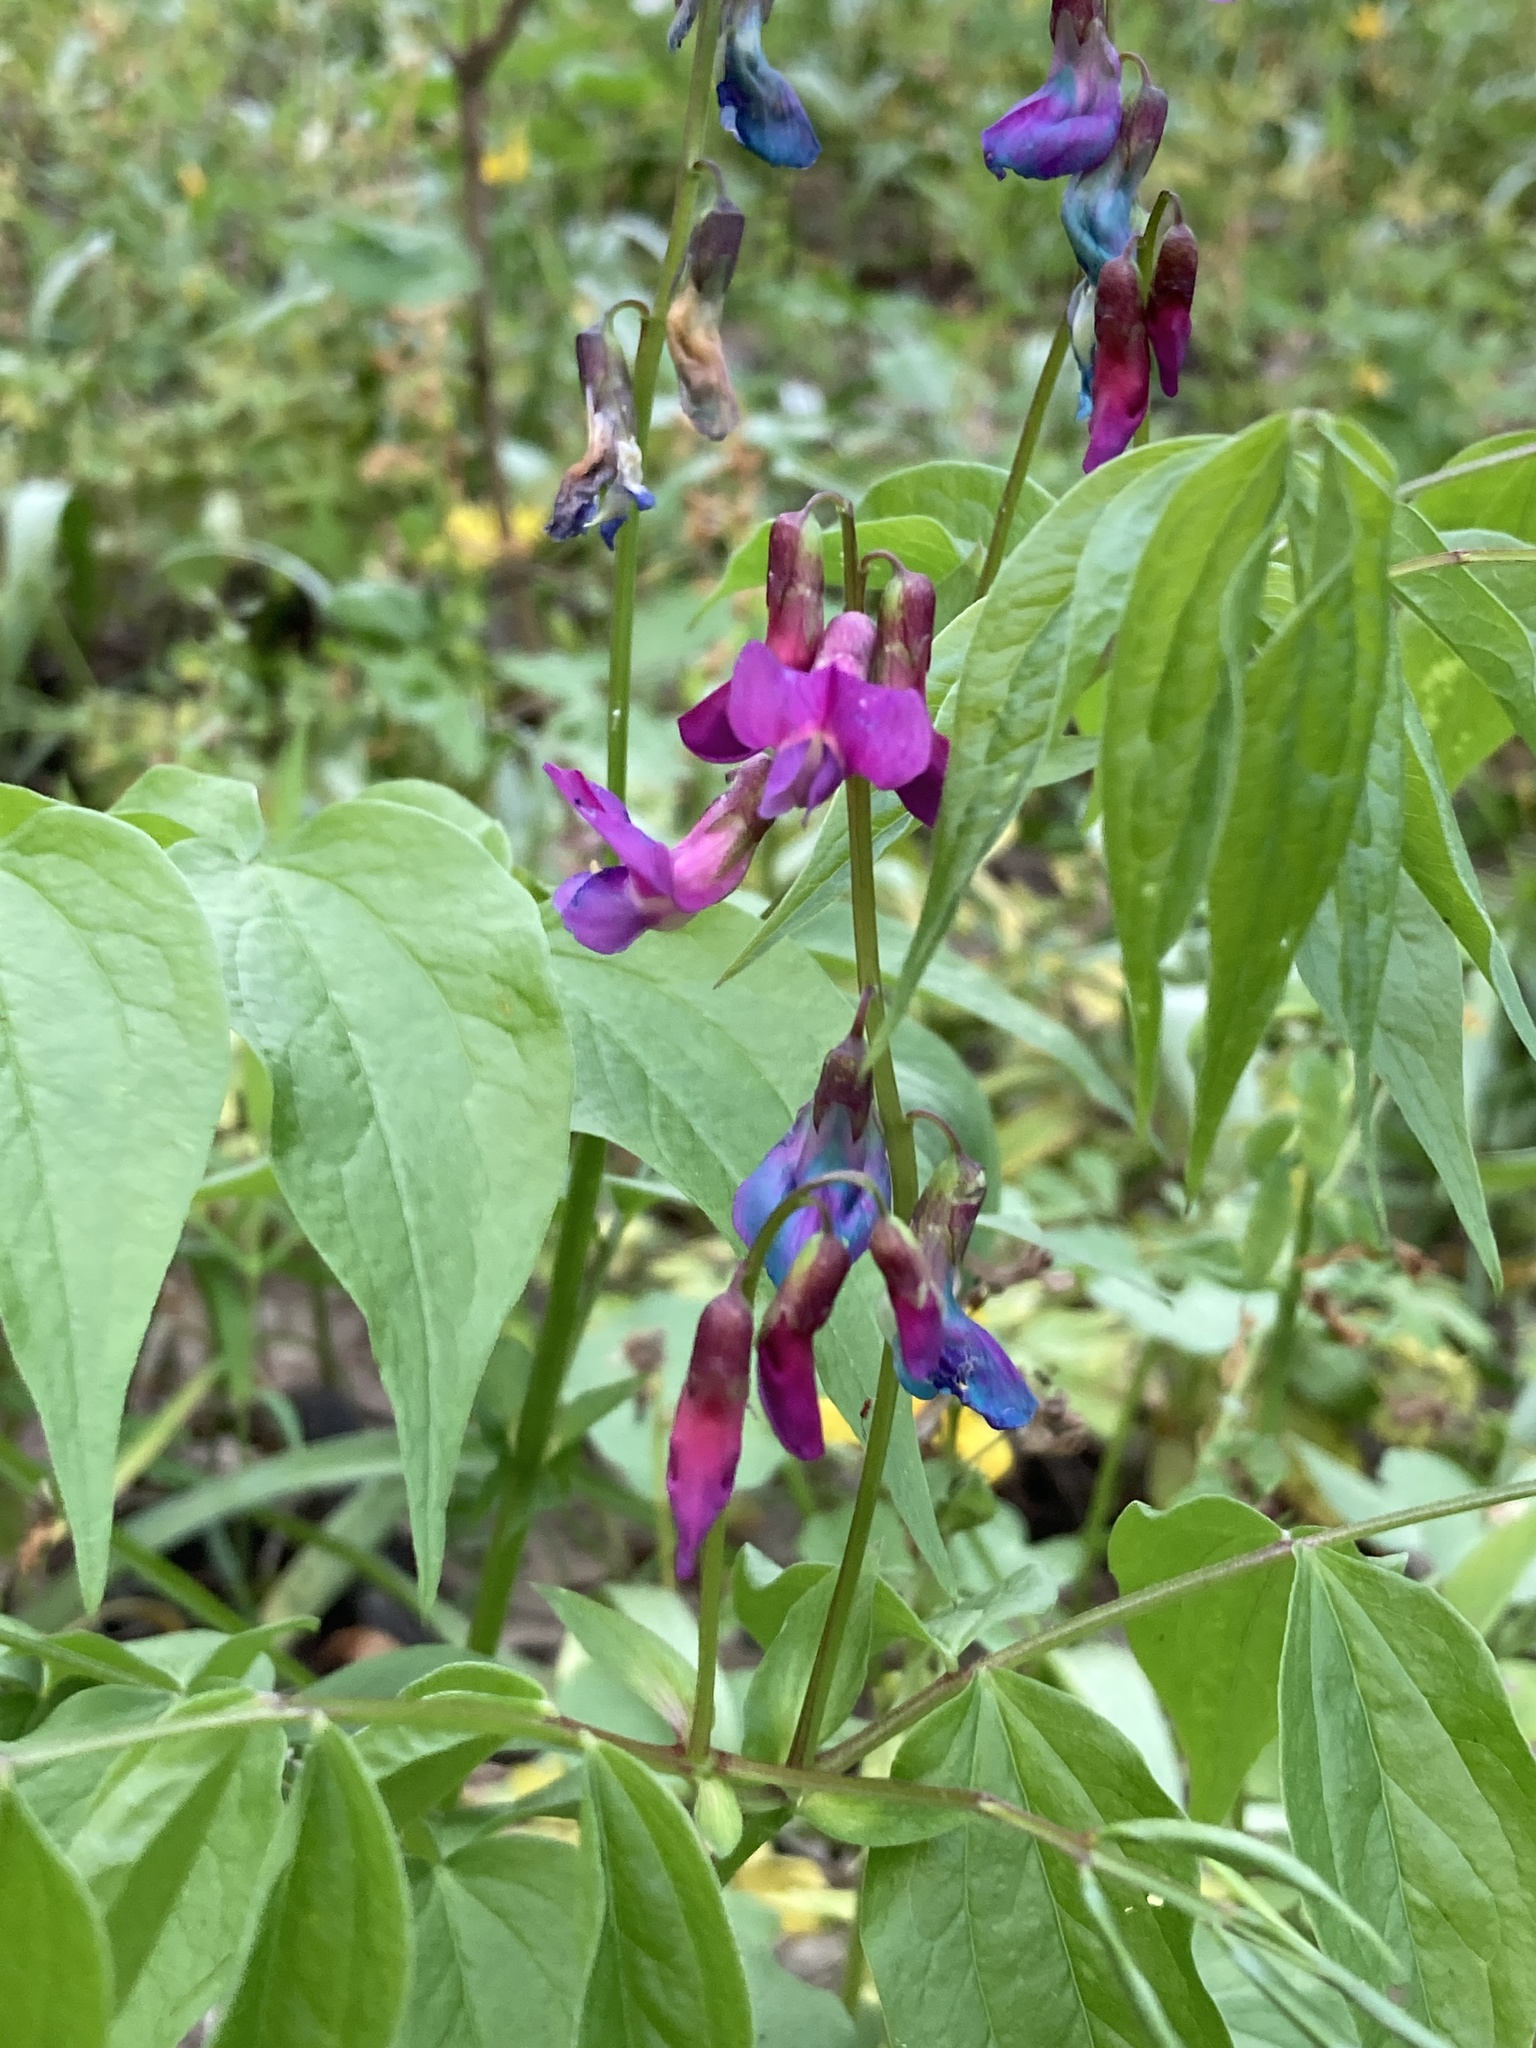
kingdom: Plantae
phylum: Tracheophyta
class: Magnoliopsida
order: Fabales
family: Fabaceae
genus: Lathyrus
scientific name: Lathyrus vernus
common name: Spring pea
